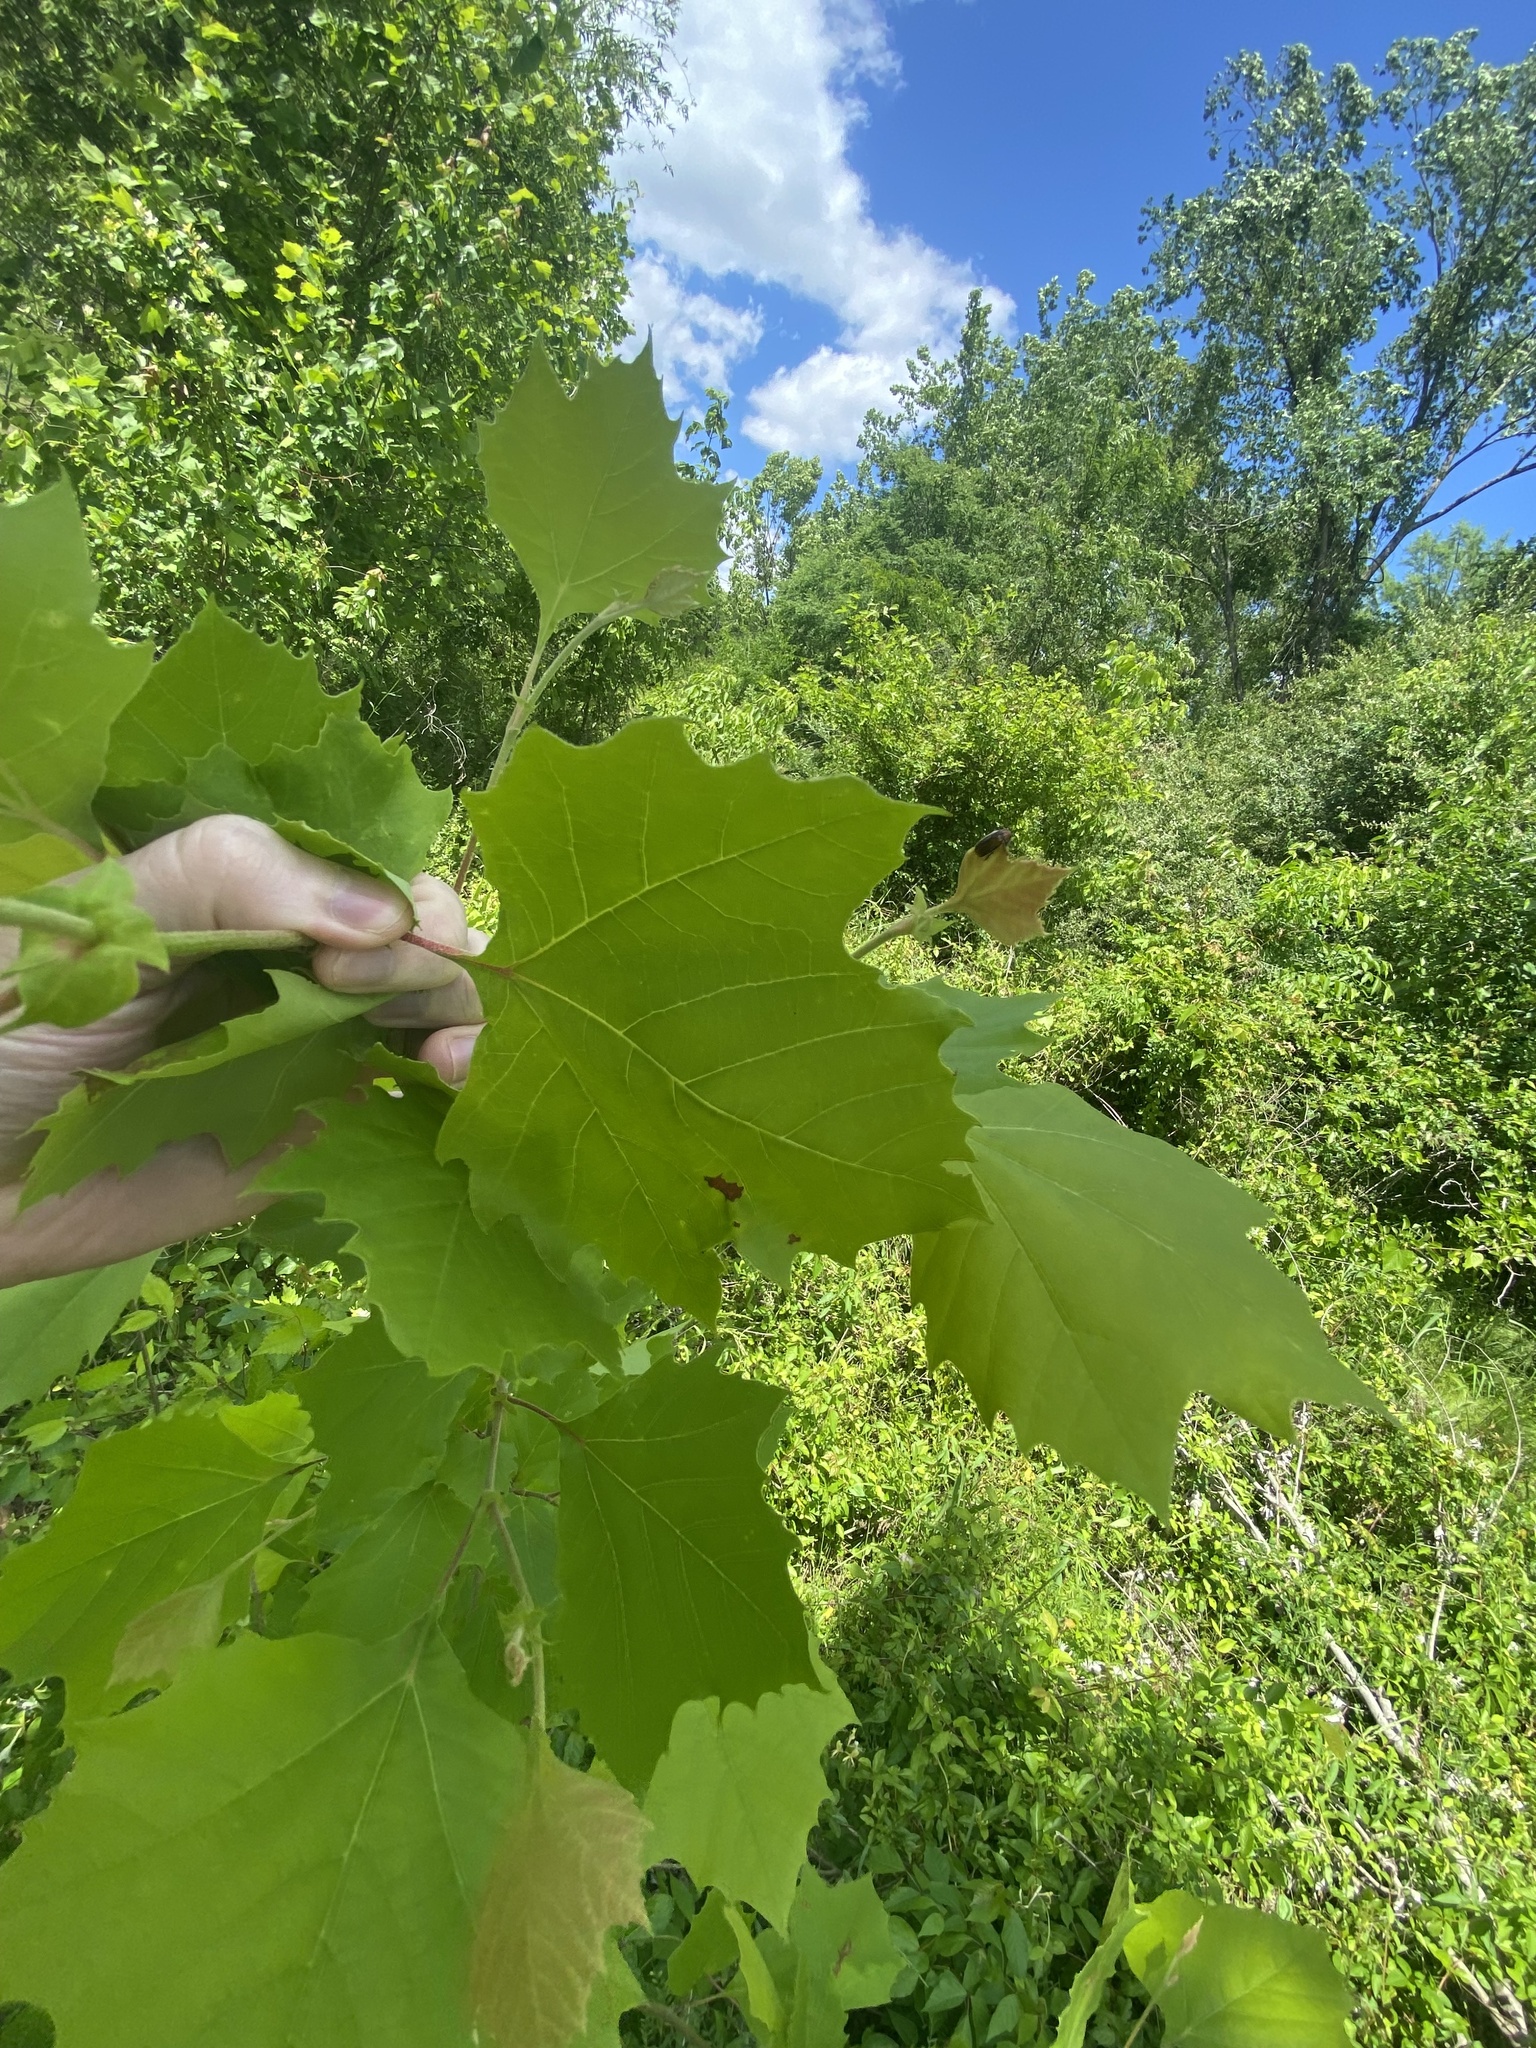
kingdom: Plantae
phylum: Tracheophyta
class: Magnoliopsida
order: Proteales
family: Platanaceae
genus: Platanus
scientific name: Platanus occidentalis
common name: American sycamore
